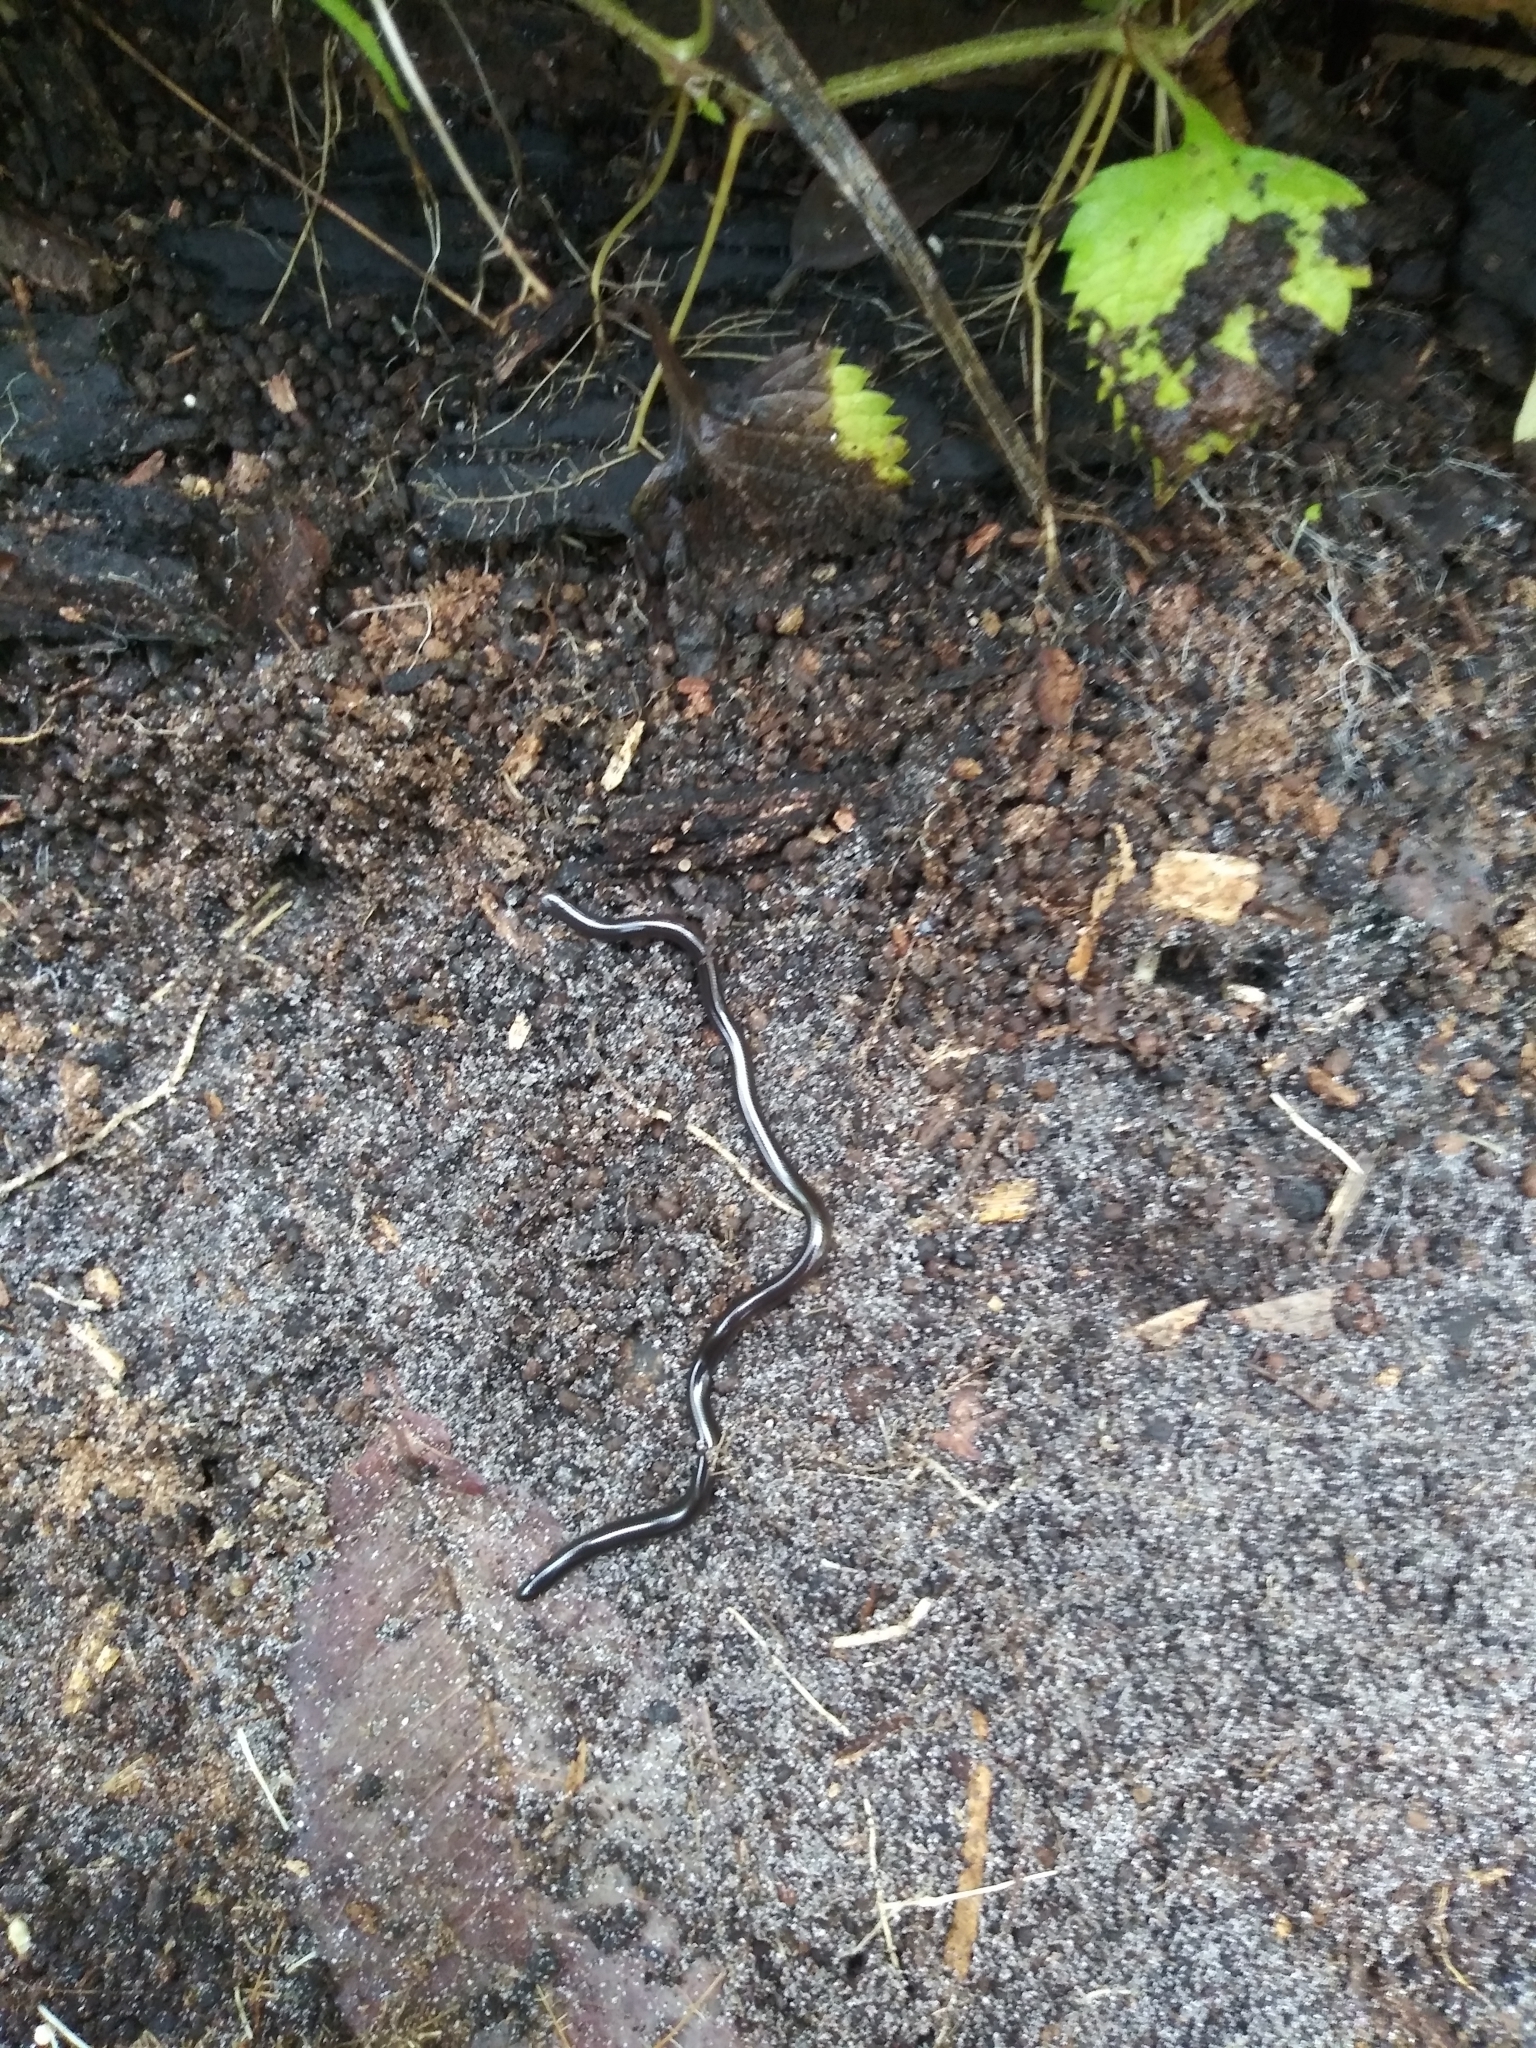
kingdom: Animalia
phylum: Chordata
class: Squamata
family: Typhlopidae
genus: Indotyphlops
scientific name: Indotyphlops braminus
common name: Brahminy blindsnake
